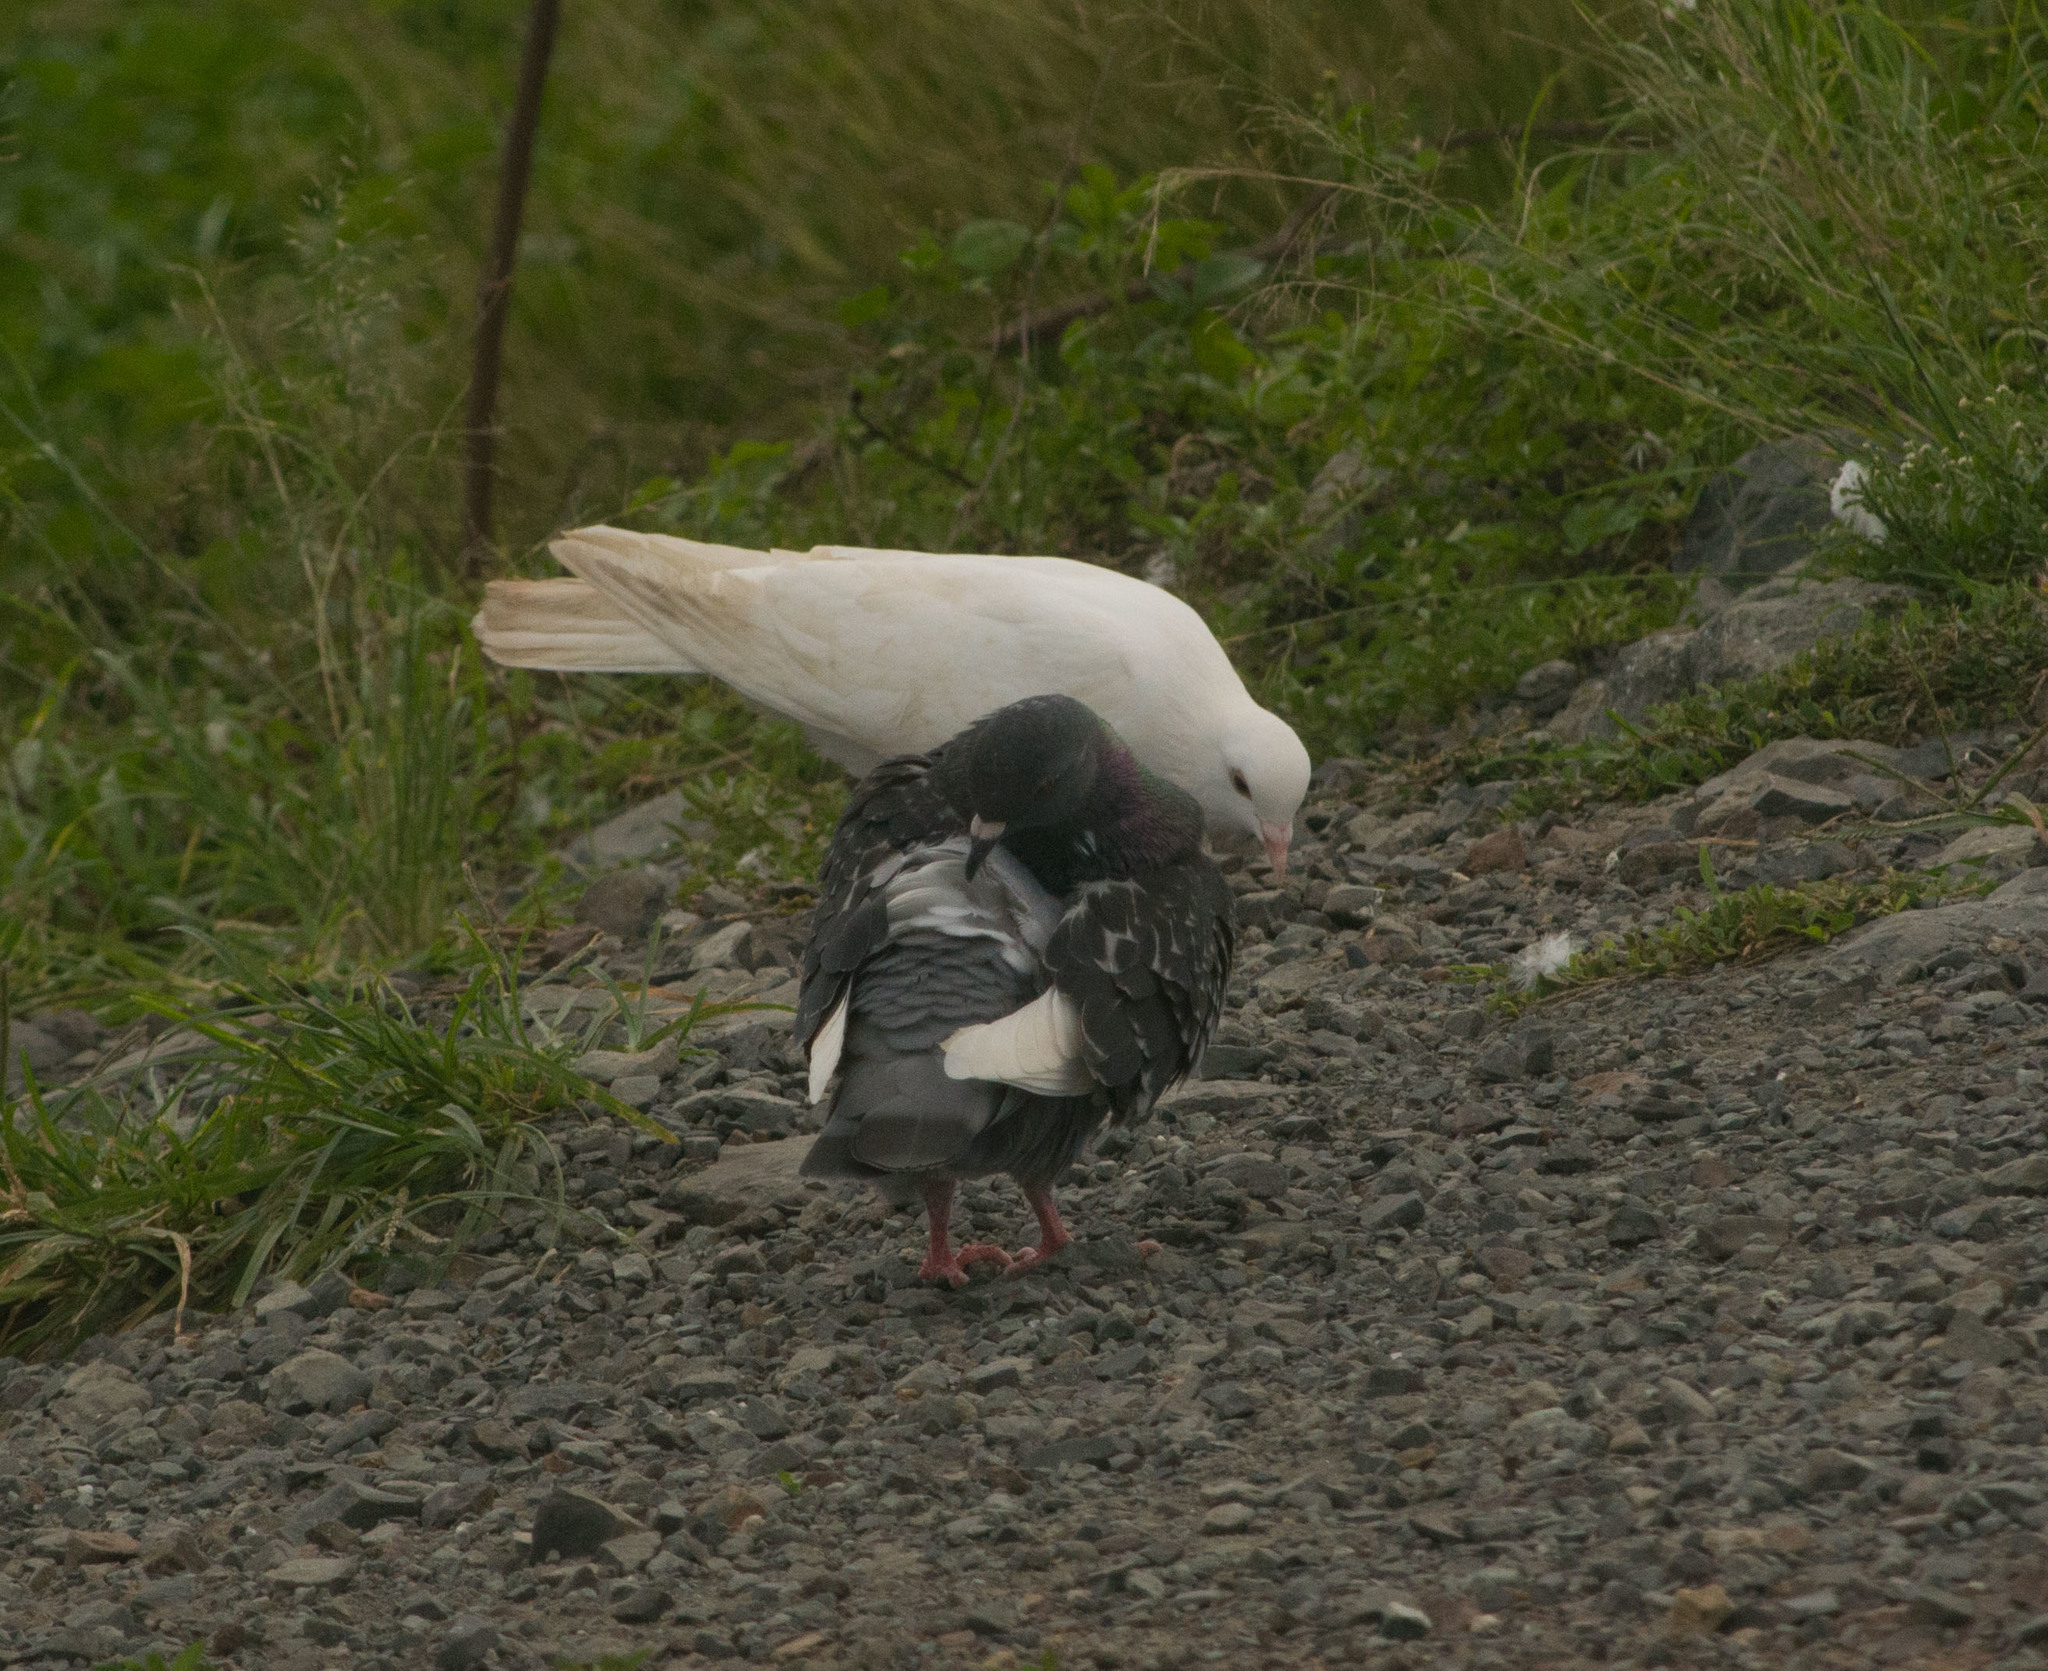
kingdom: Animalia
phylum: Chordata
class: Aves
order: Columbiformes
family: Columbidae
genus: Columba
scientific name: Columba livia
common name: Rock pigeon
